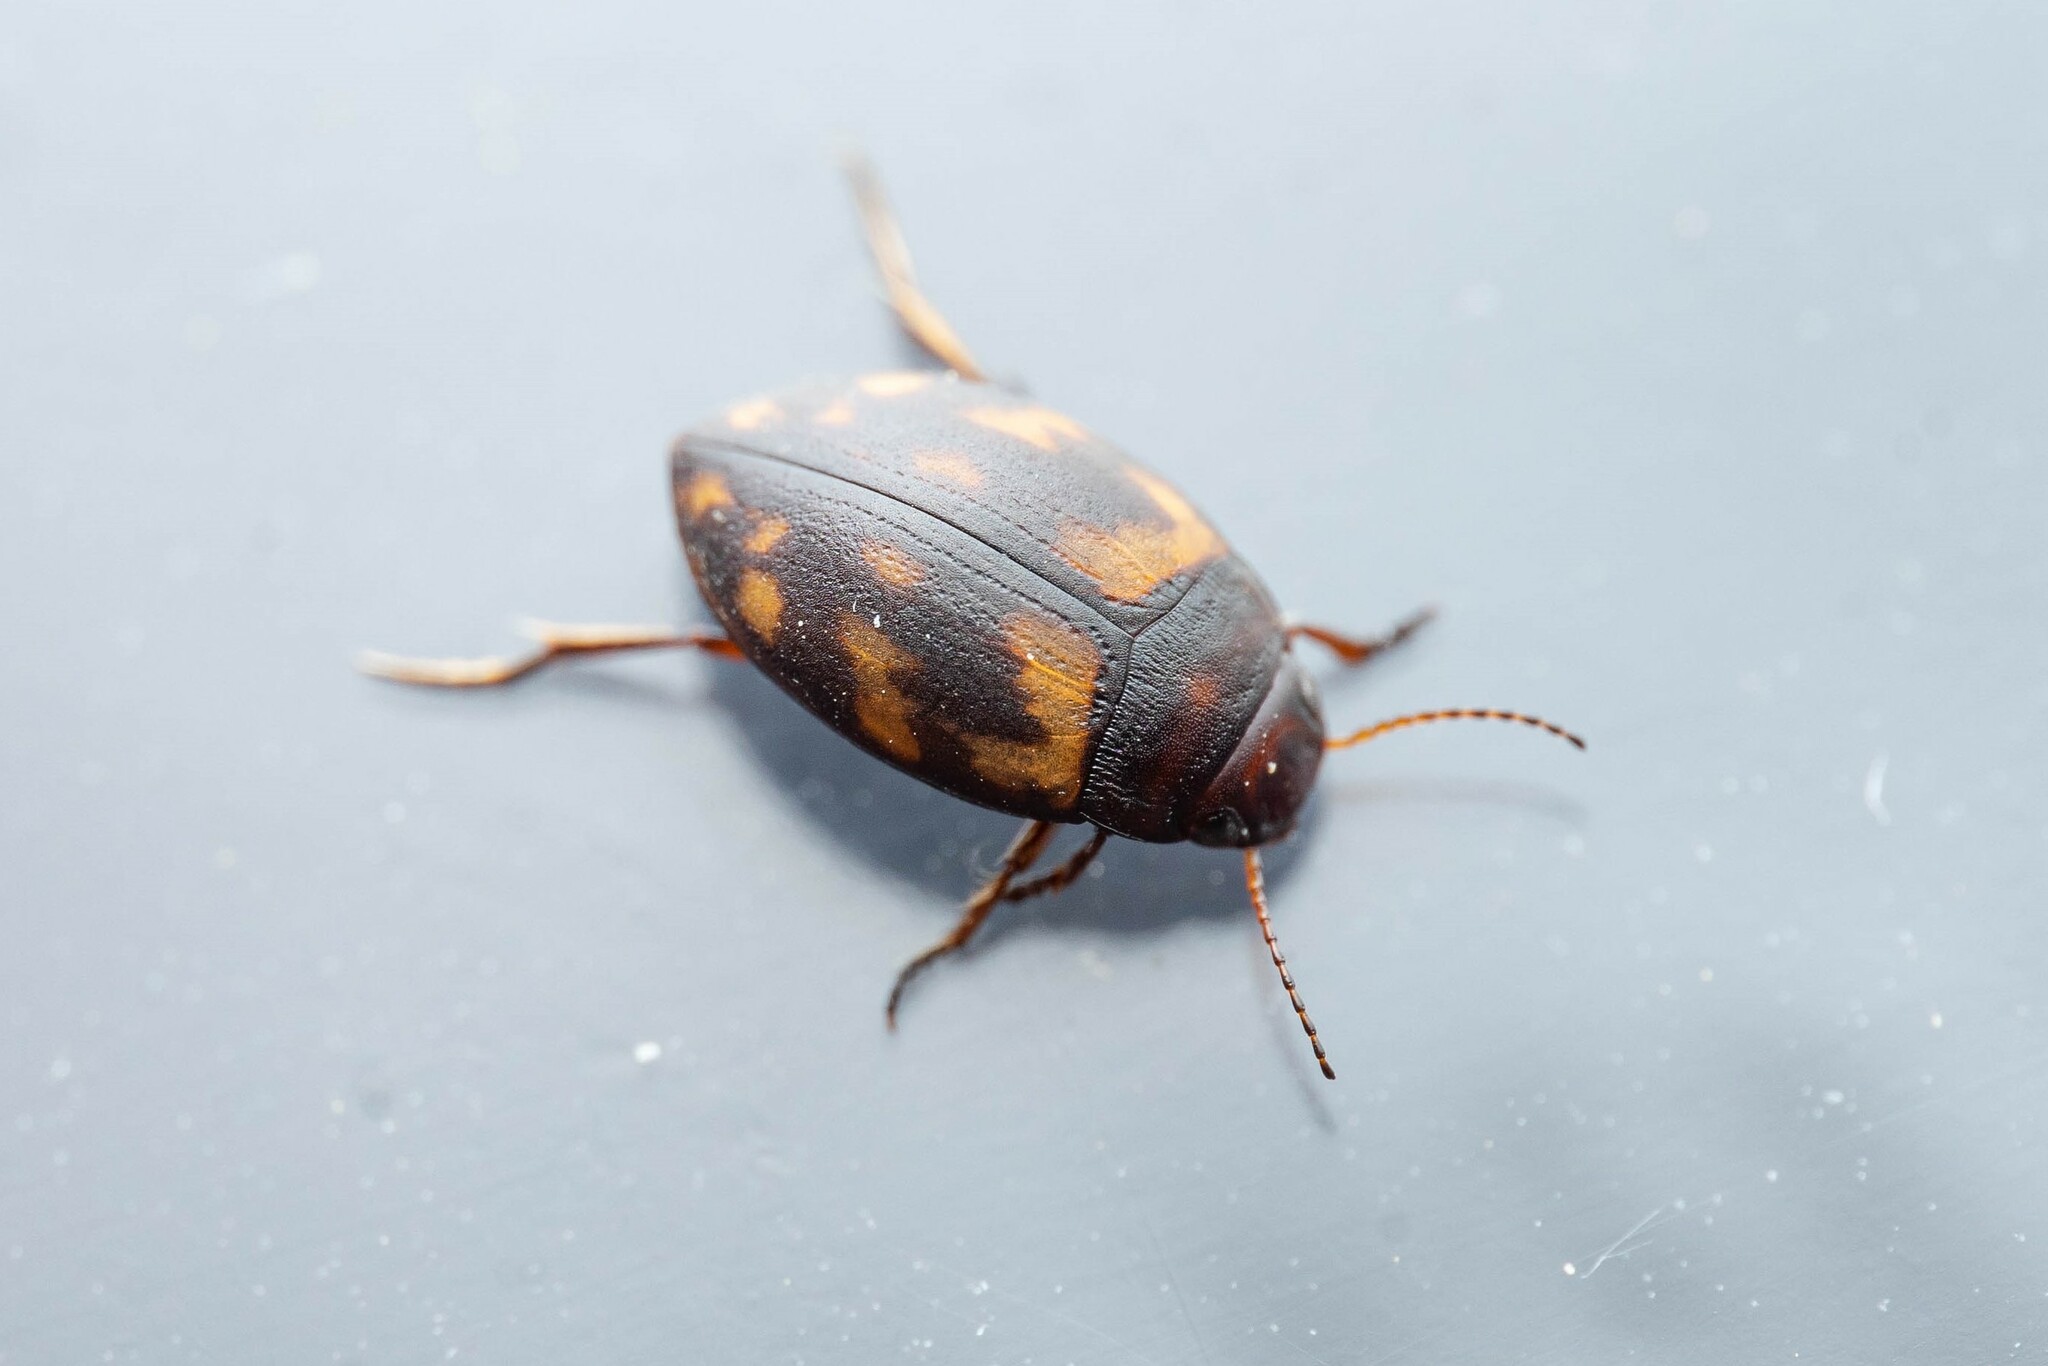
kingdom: Animalia
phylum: Arthropoda
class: Insecta
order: Coleoptera
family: Dytiscidae
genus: Clarkhydrus
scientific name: Clarkhydrus corvinus
